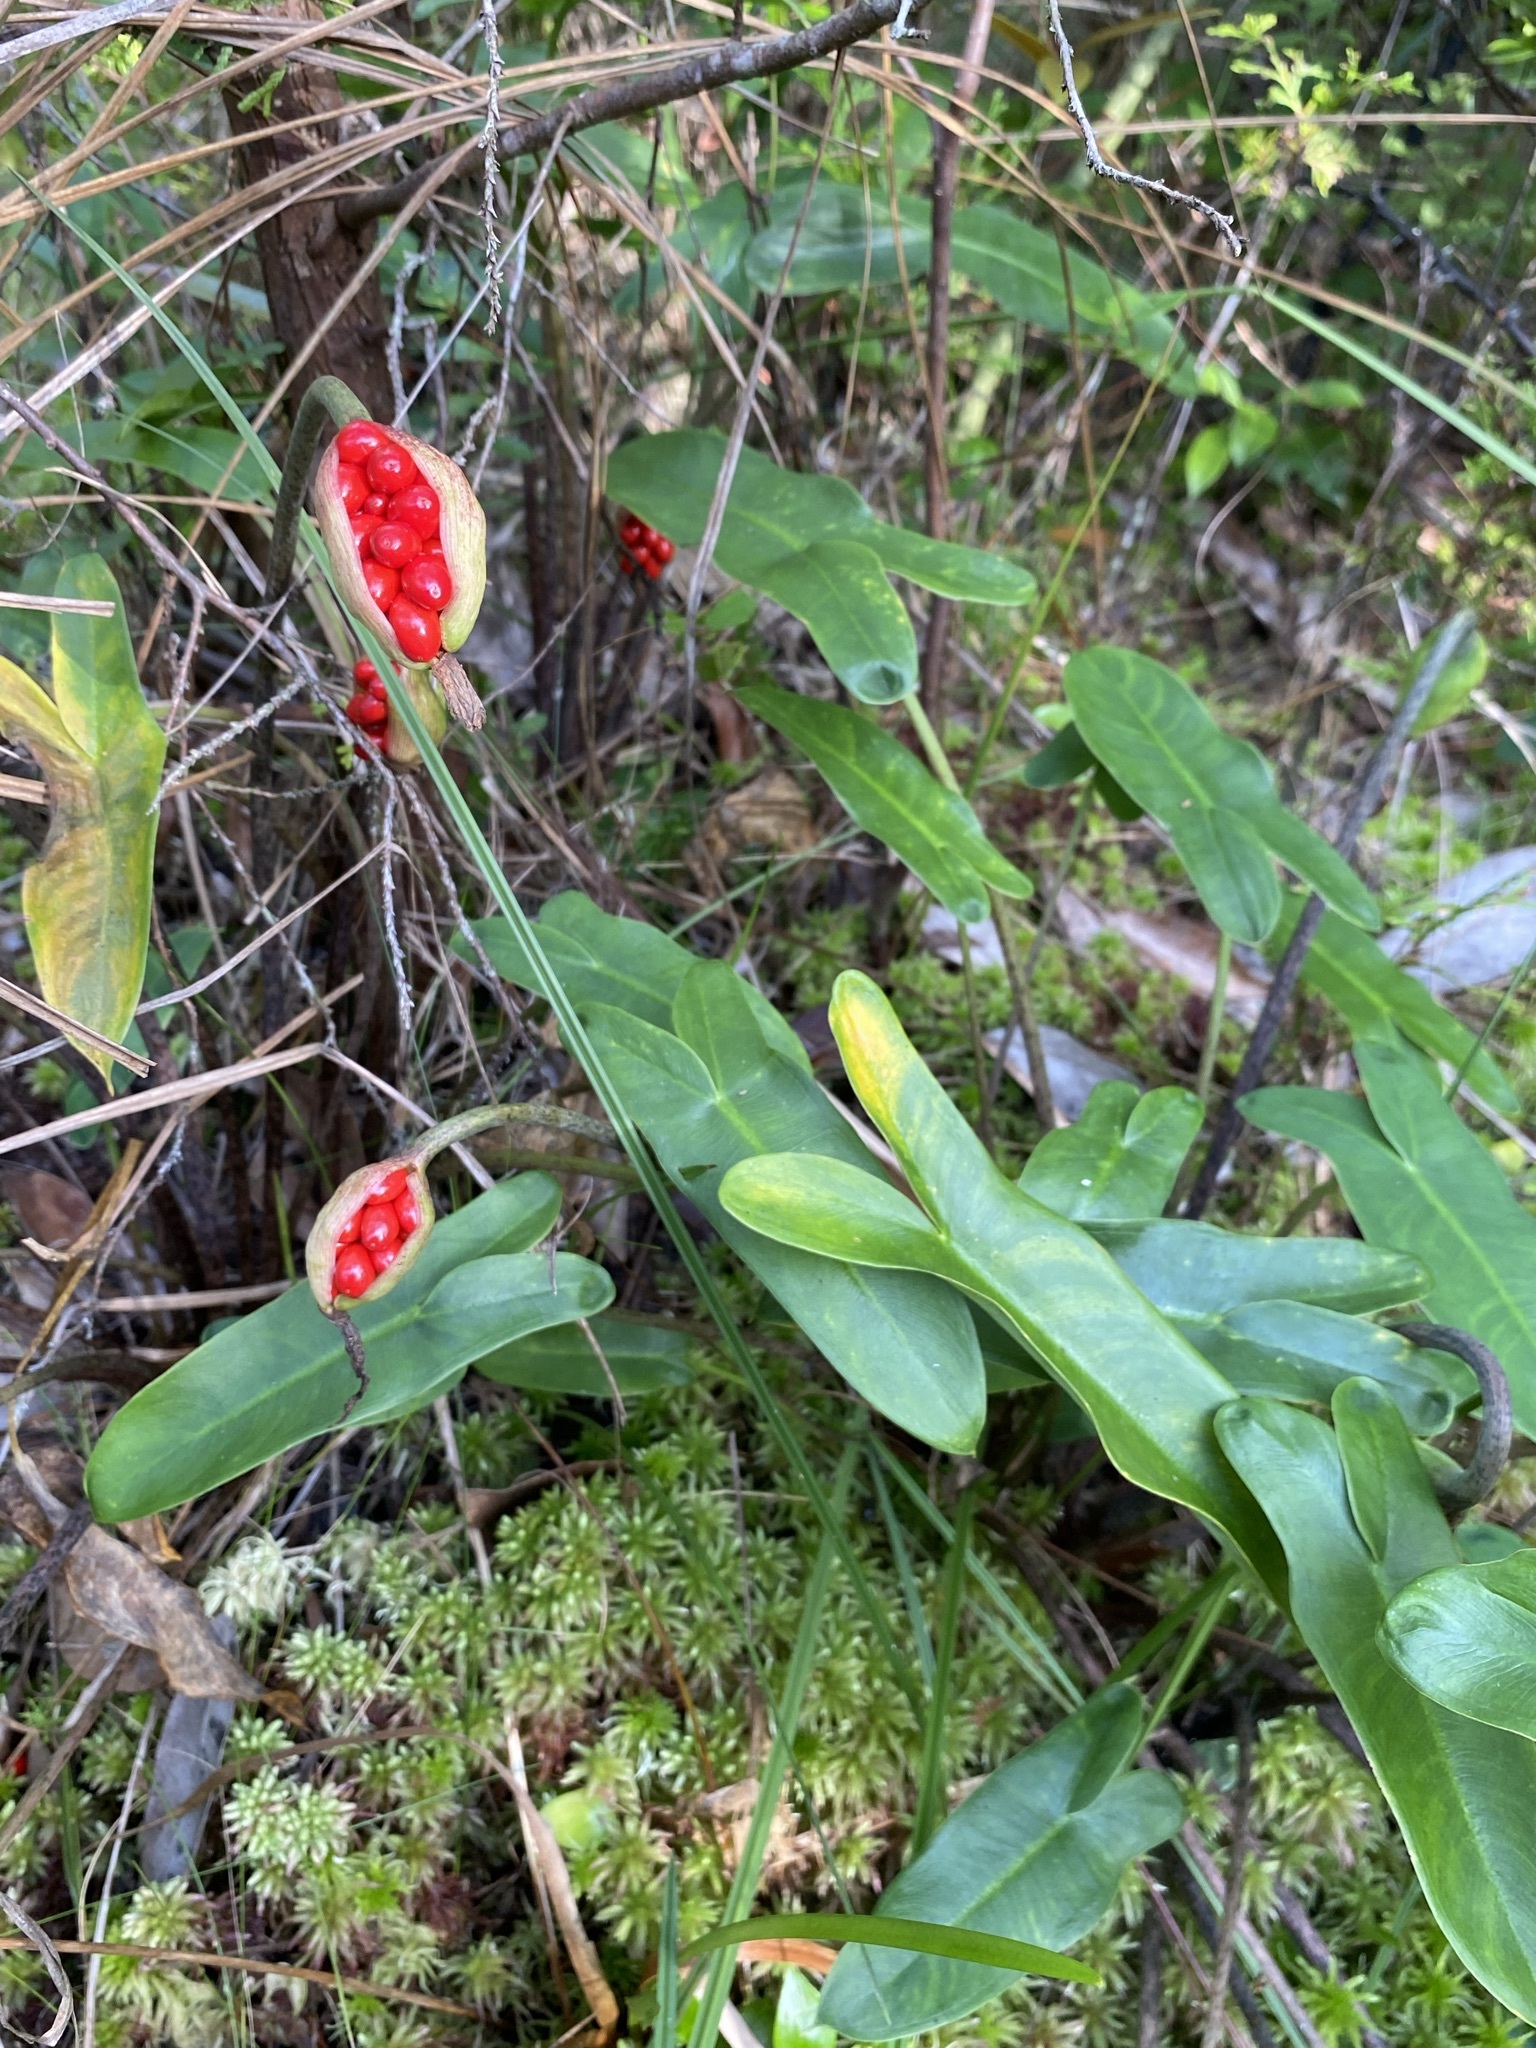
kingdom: Plantae
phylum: Tracheophyta
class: Liliopsida
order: Alismatales
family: Araceae
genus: Peltandra
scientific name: Peltandra sagittifolia
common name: White arrow arum
